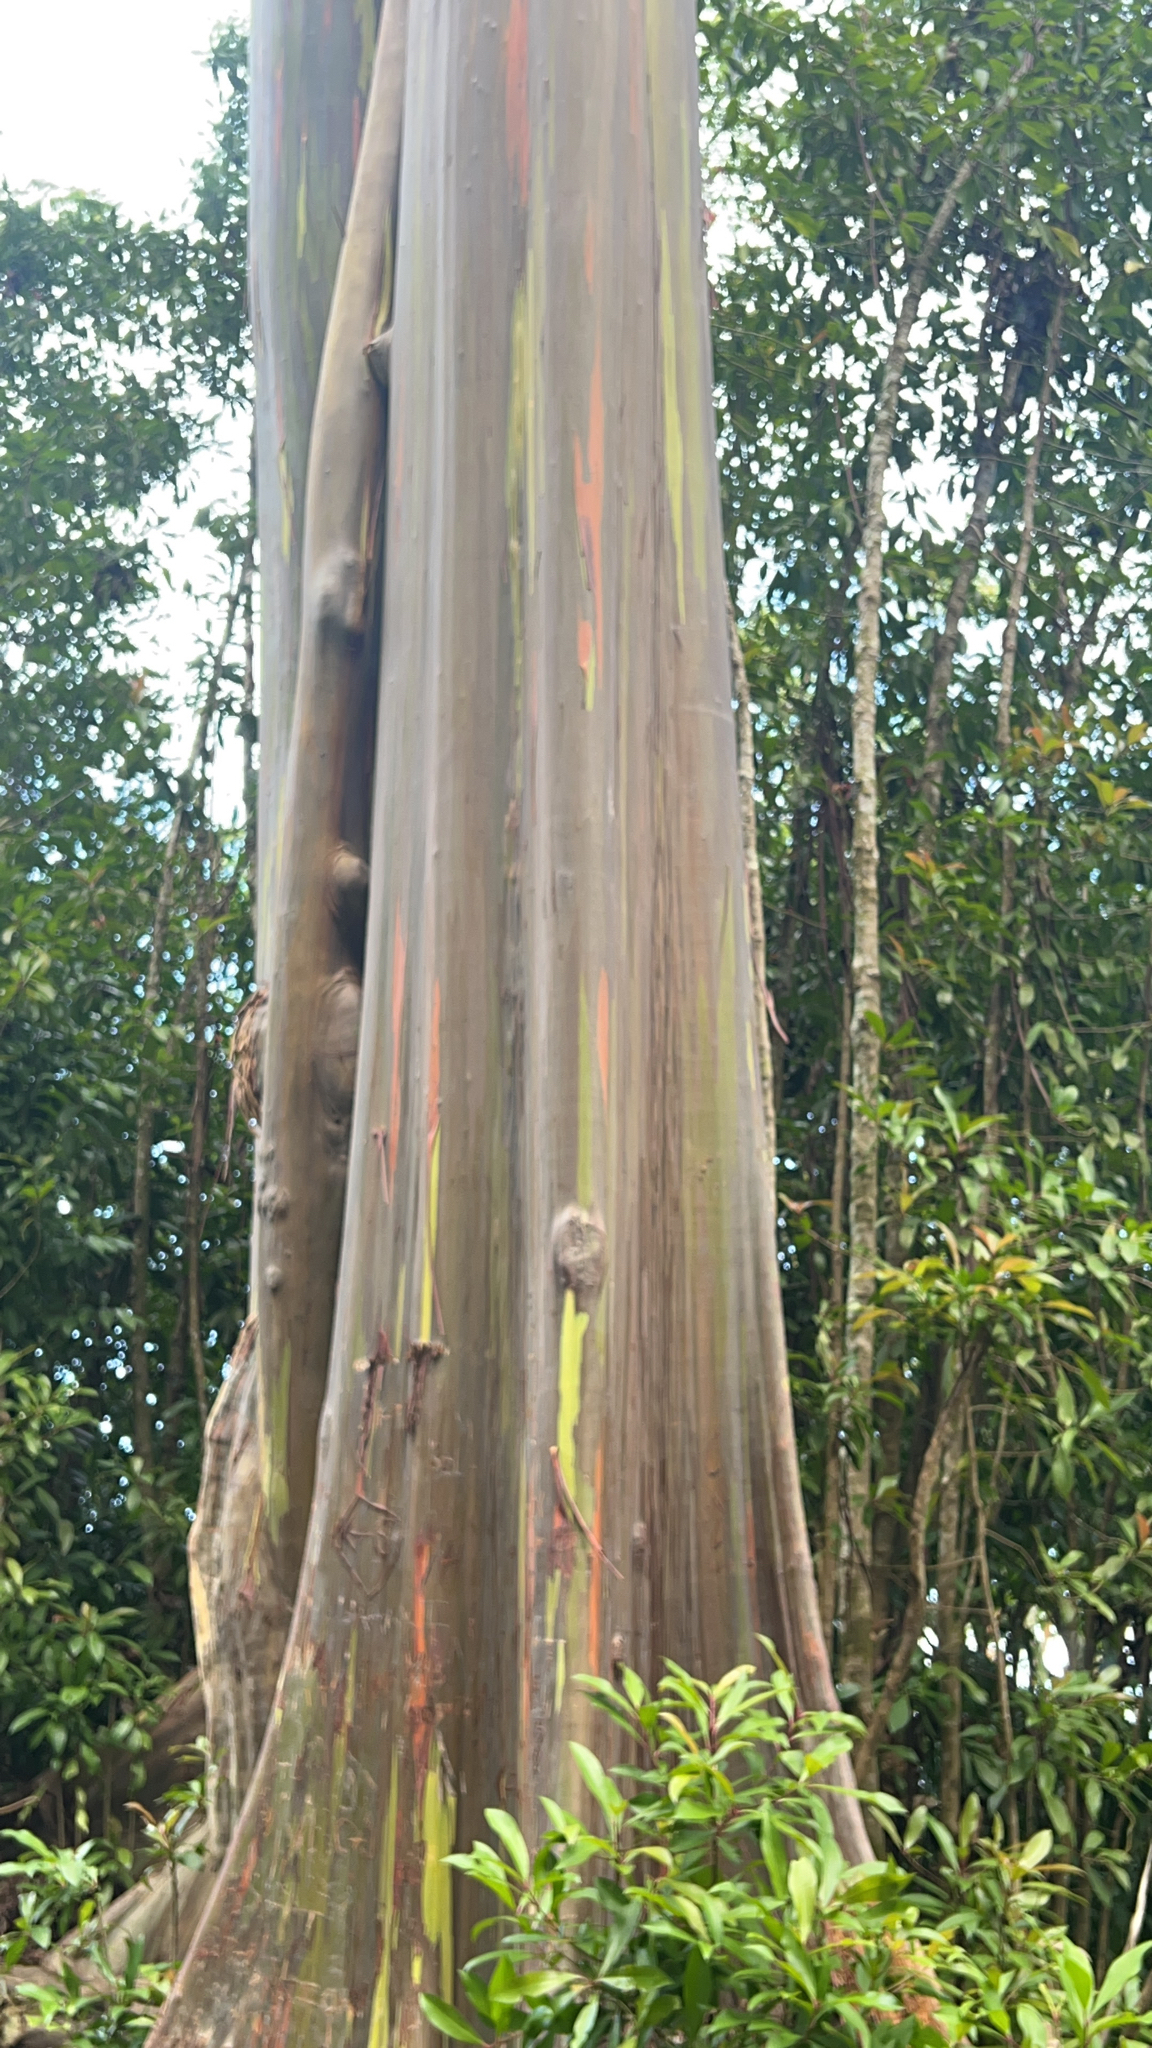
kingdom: Plantae
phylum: Tracheophyta
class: Magnoliopsida
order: Myrtales
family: Myrtaceae
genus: Eucalyptus
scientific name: Eucalyptus deglupta
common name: Mindanao gum
